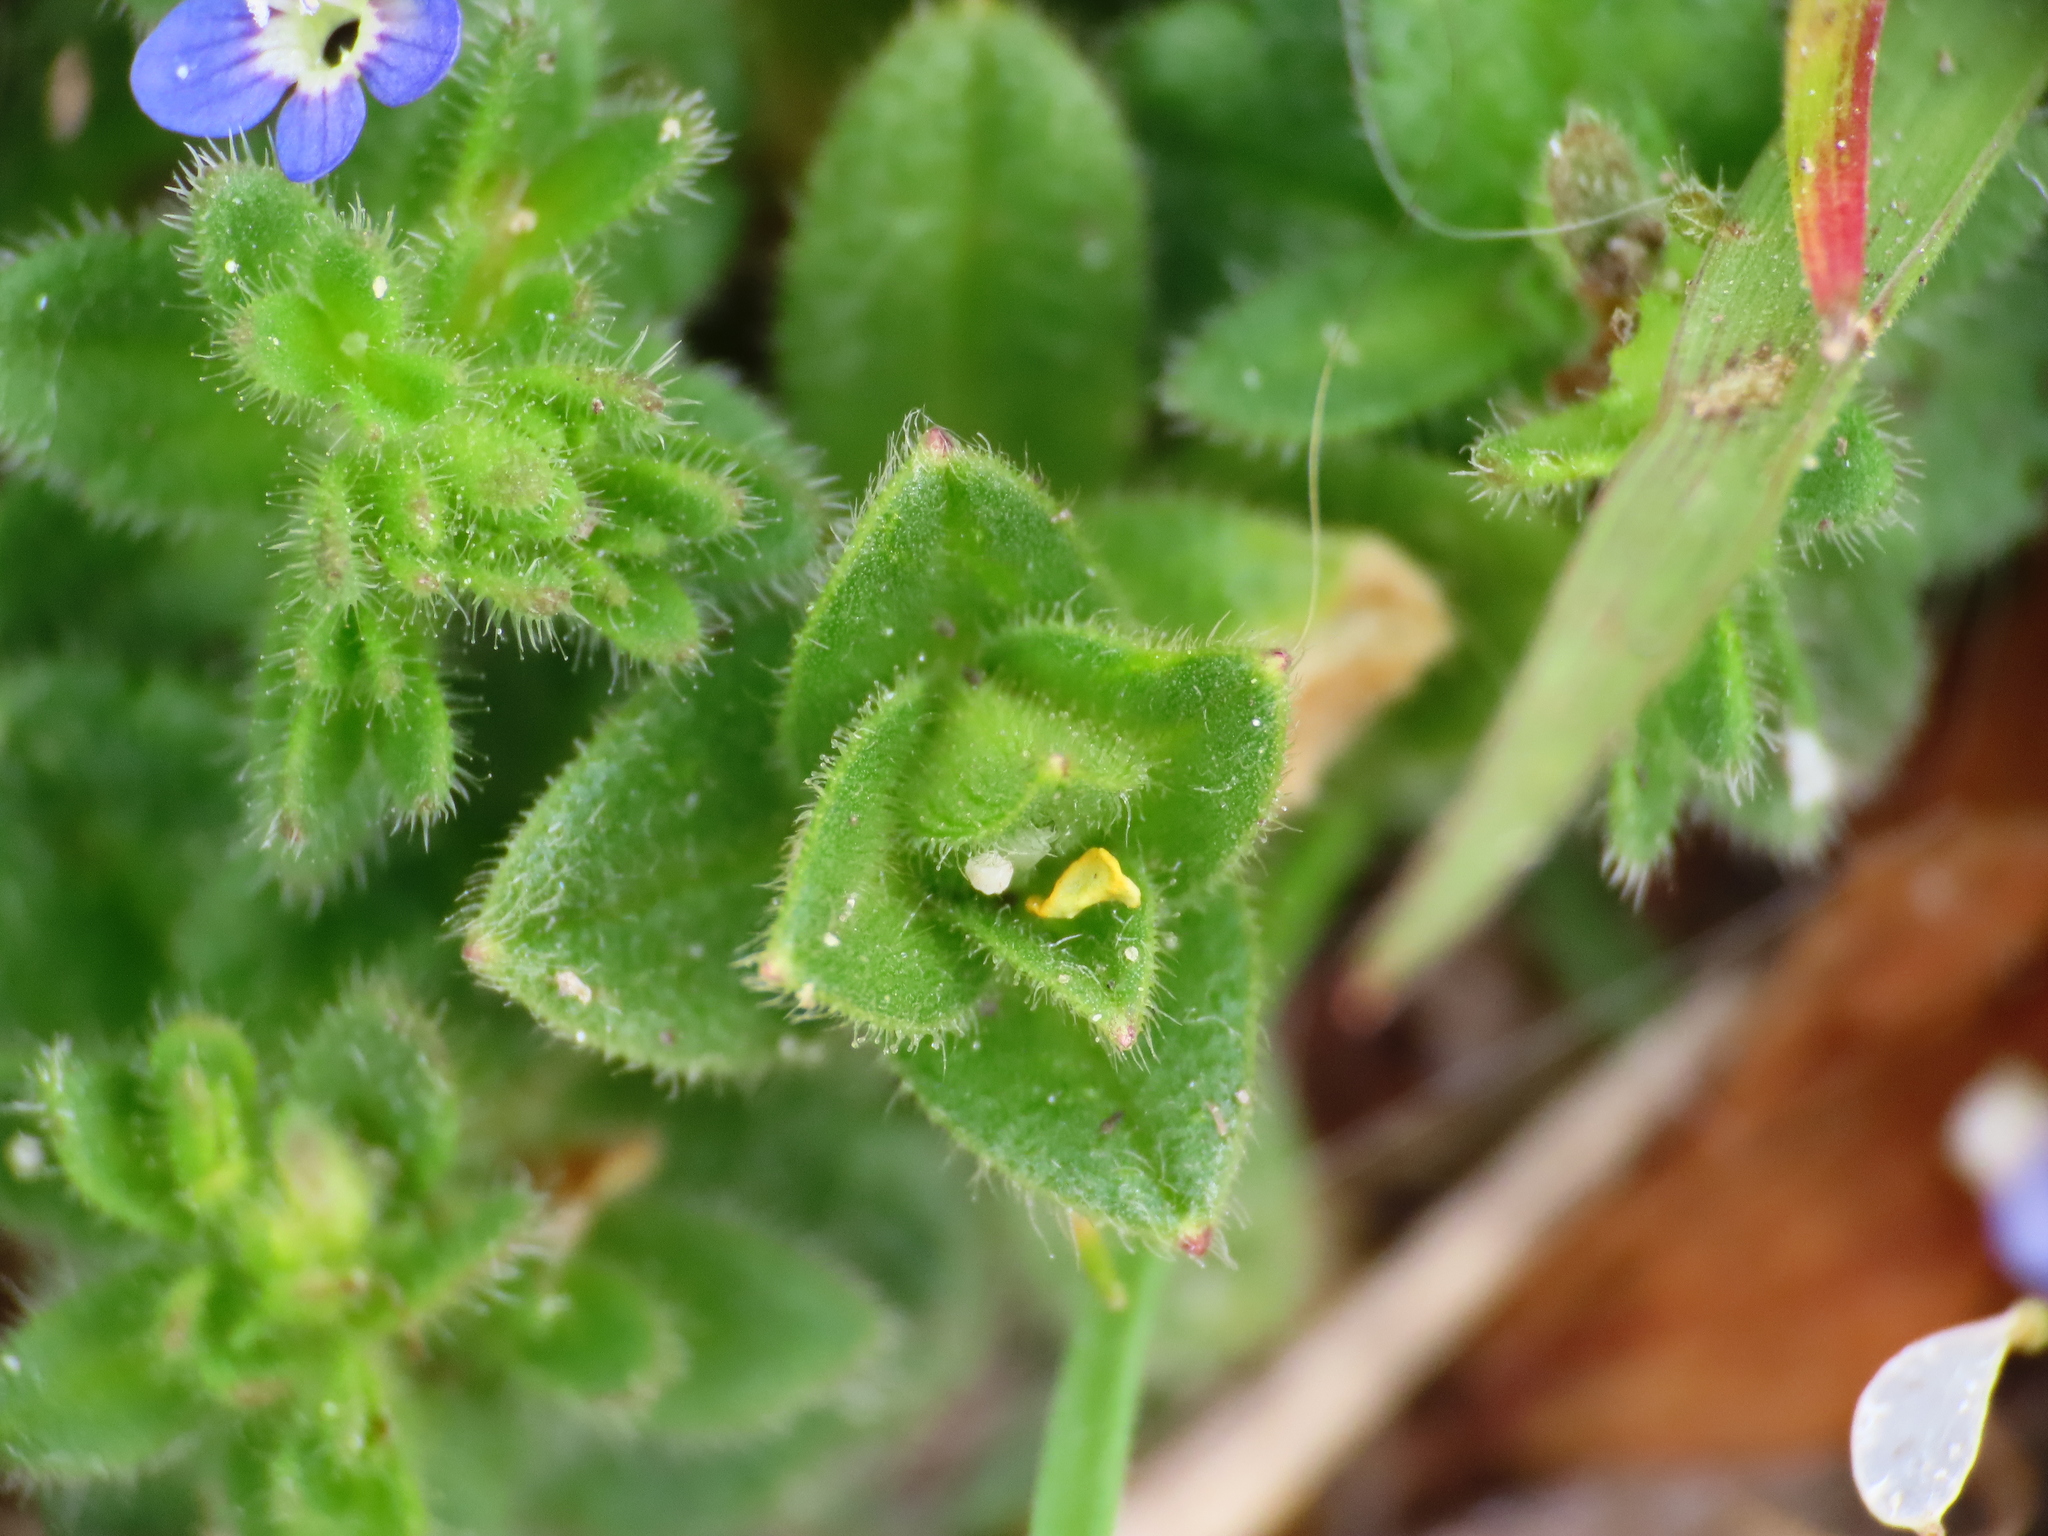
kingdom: Plantae
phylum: Tracheophyta
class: Magnoliopsida
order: Lamiales
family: Plantaginaceae
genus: Veronica
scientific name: Veronica arvensis
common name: Corn speedwell
